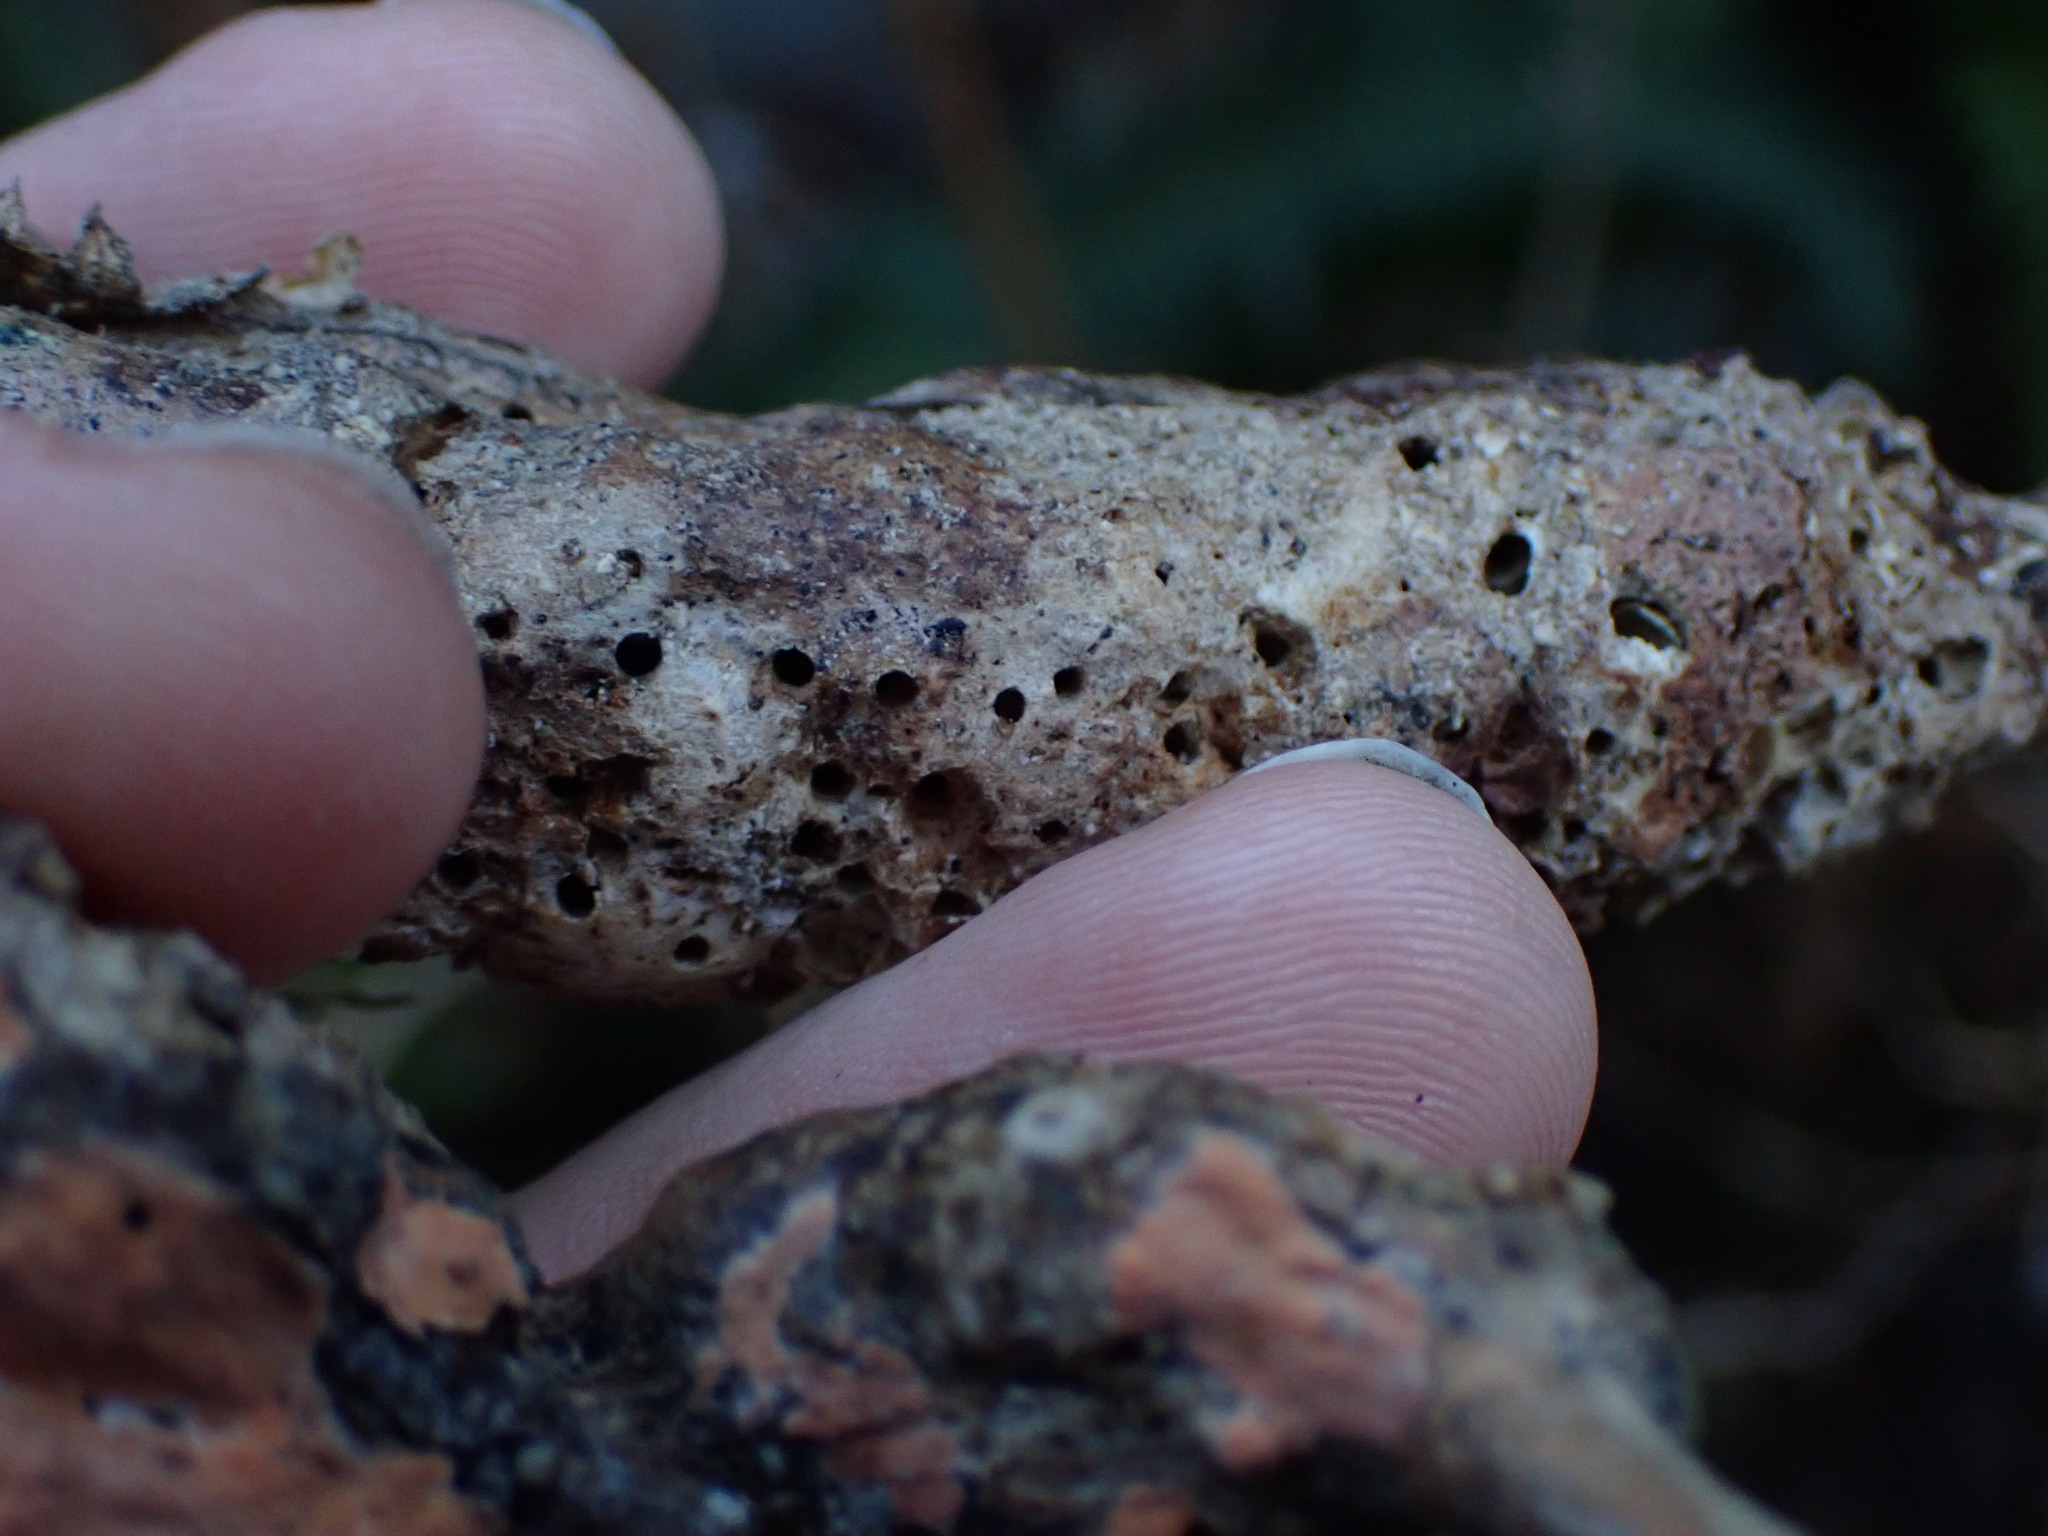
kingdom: Animalia
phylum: Arthropoda
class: Insecta
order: Hymenoptera
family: Cynipidae
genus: Diastrophus
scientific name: Diastrophus
